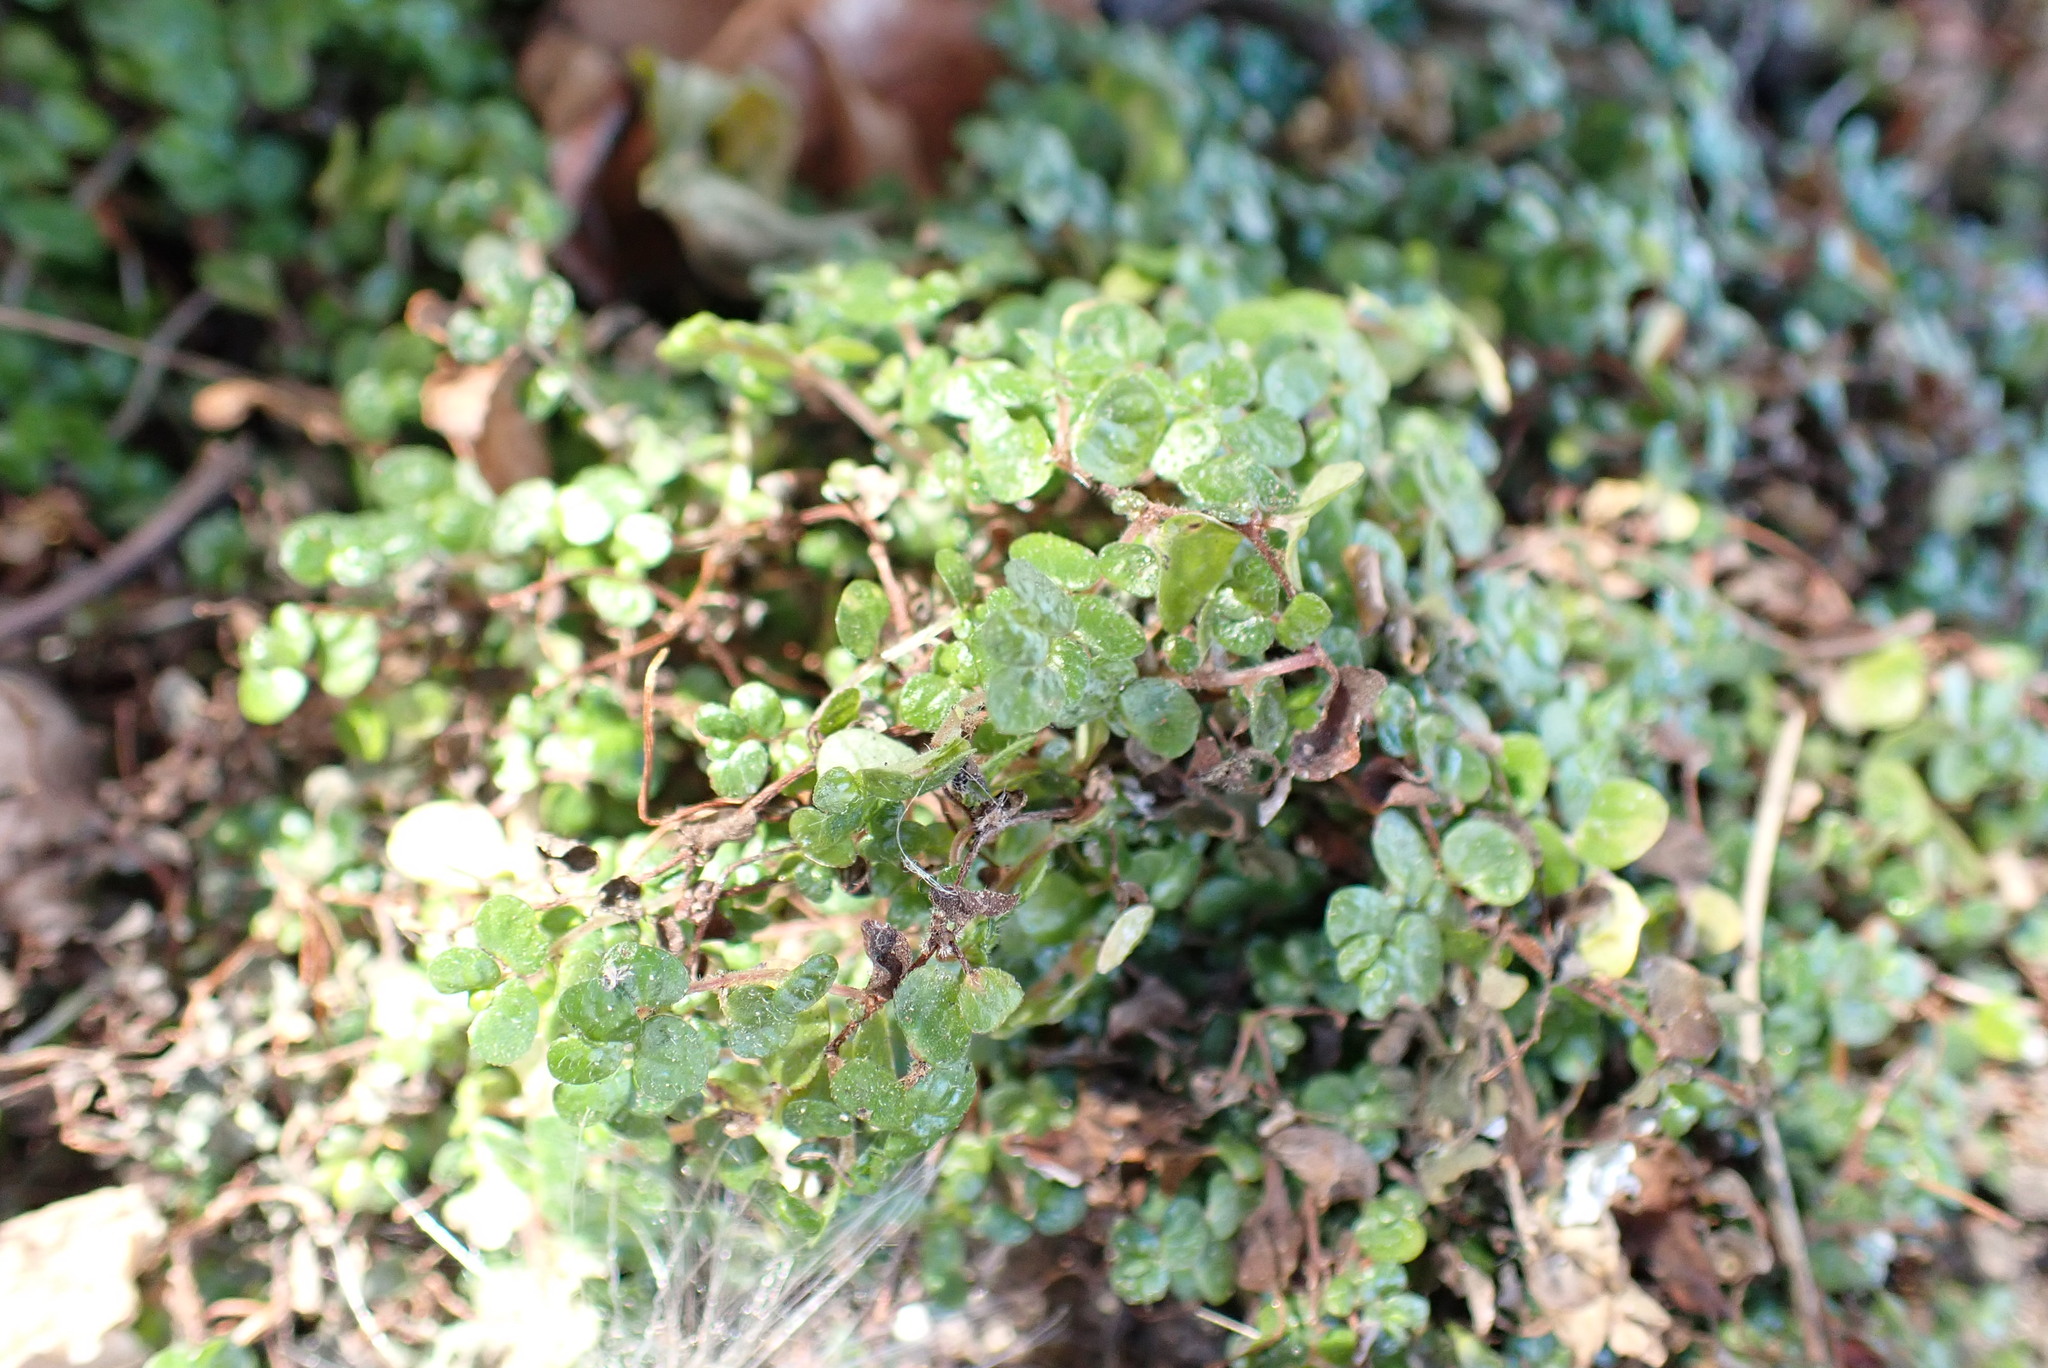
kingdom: Plantae
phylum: Tracheophyta
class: Magnoliopsida
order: Rosales
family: Urticaceae
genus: Soleirolia
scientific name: Soleirolia soleirolii
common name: Mind-your-own-business
